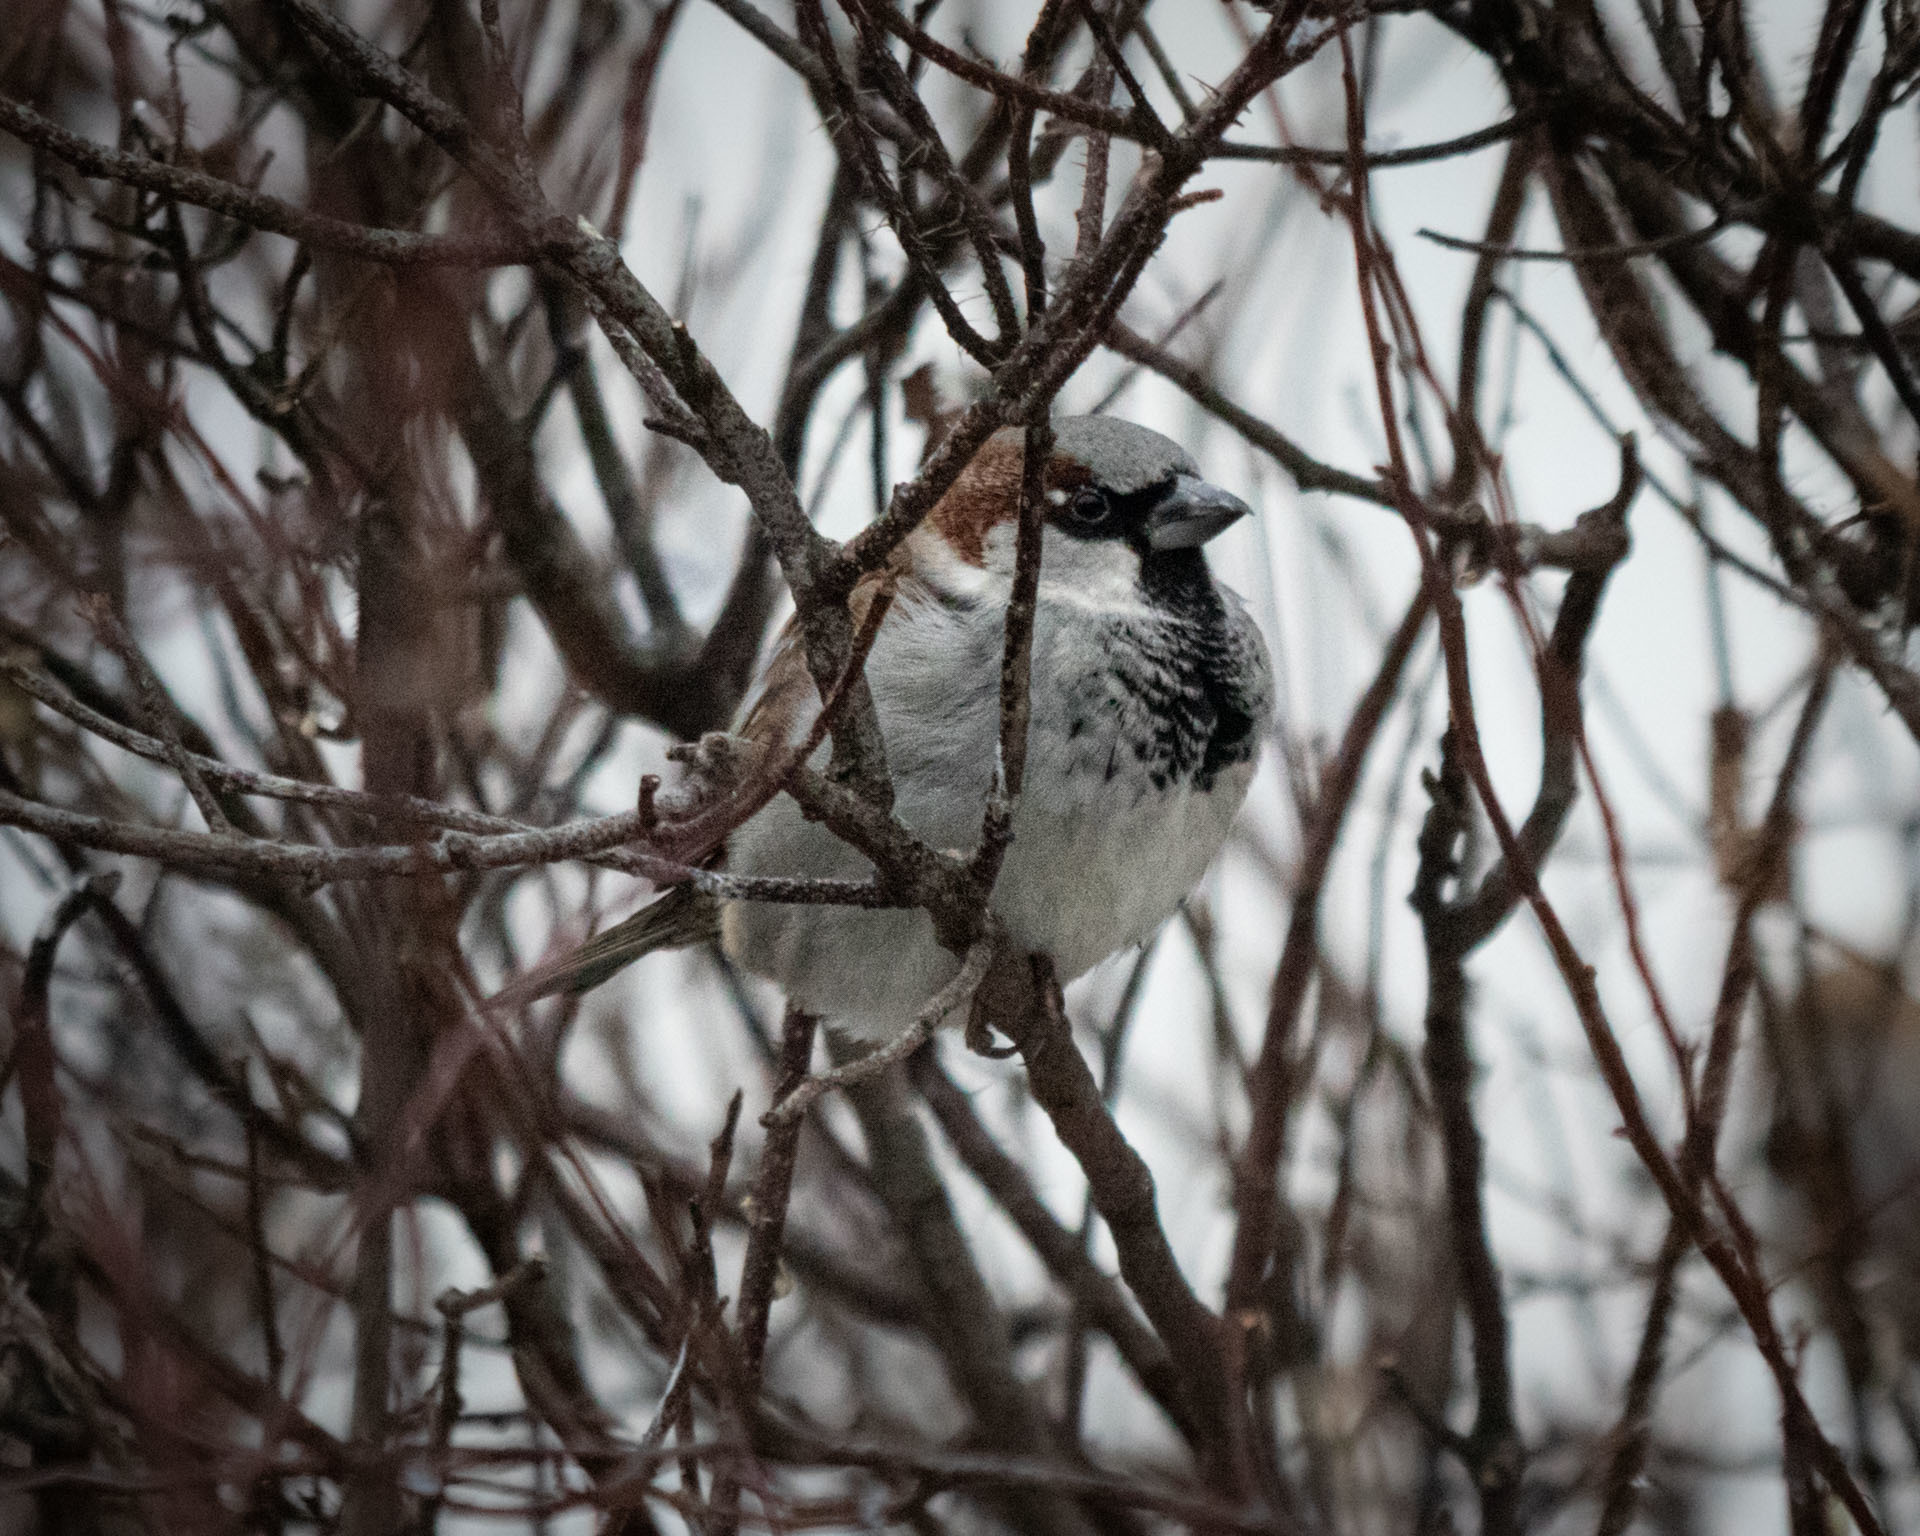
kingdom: Animalia
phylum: Chordata
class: Aves
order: Passeriformes
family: Passeridae
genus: Passer
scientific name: Passer domesticus
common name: House sparrow
